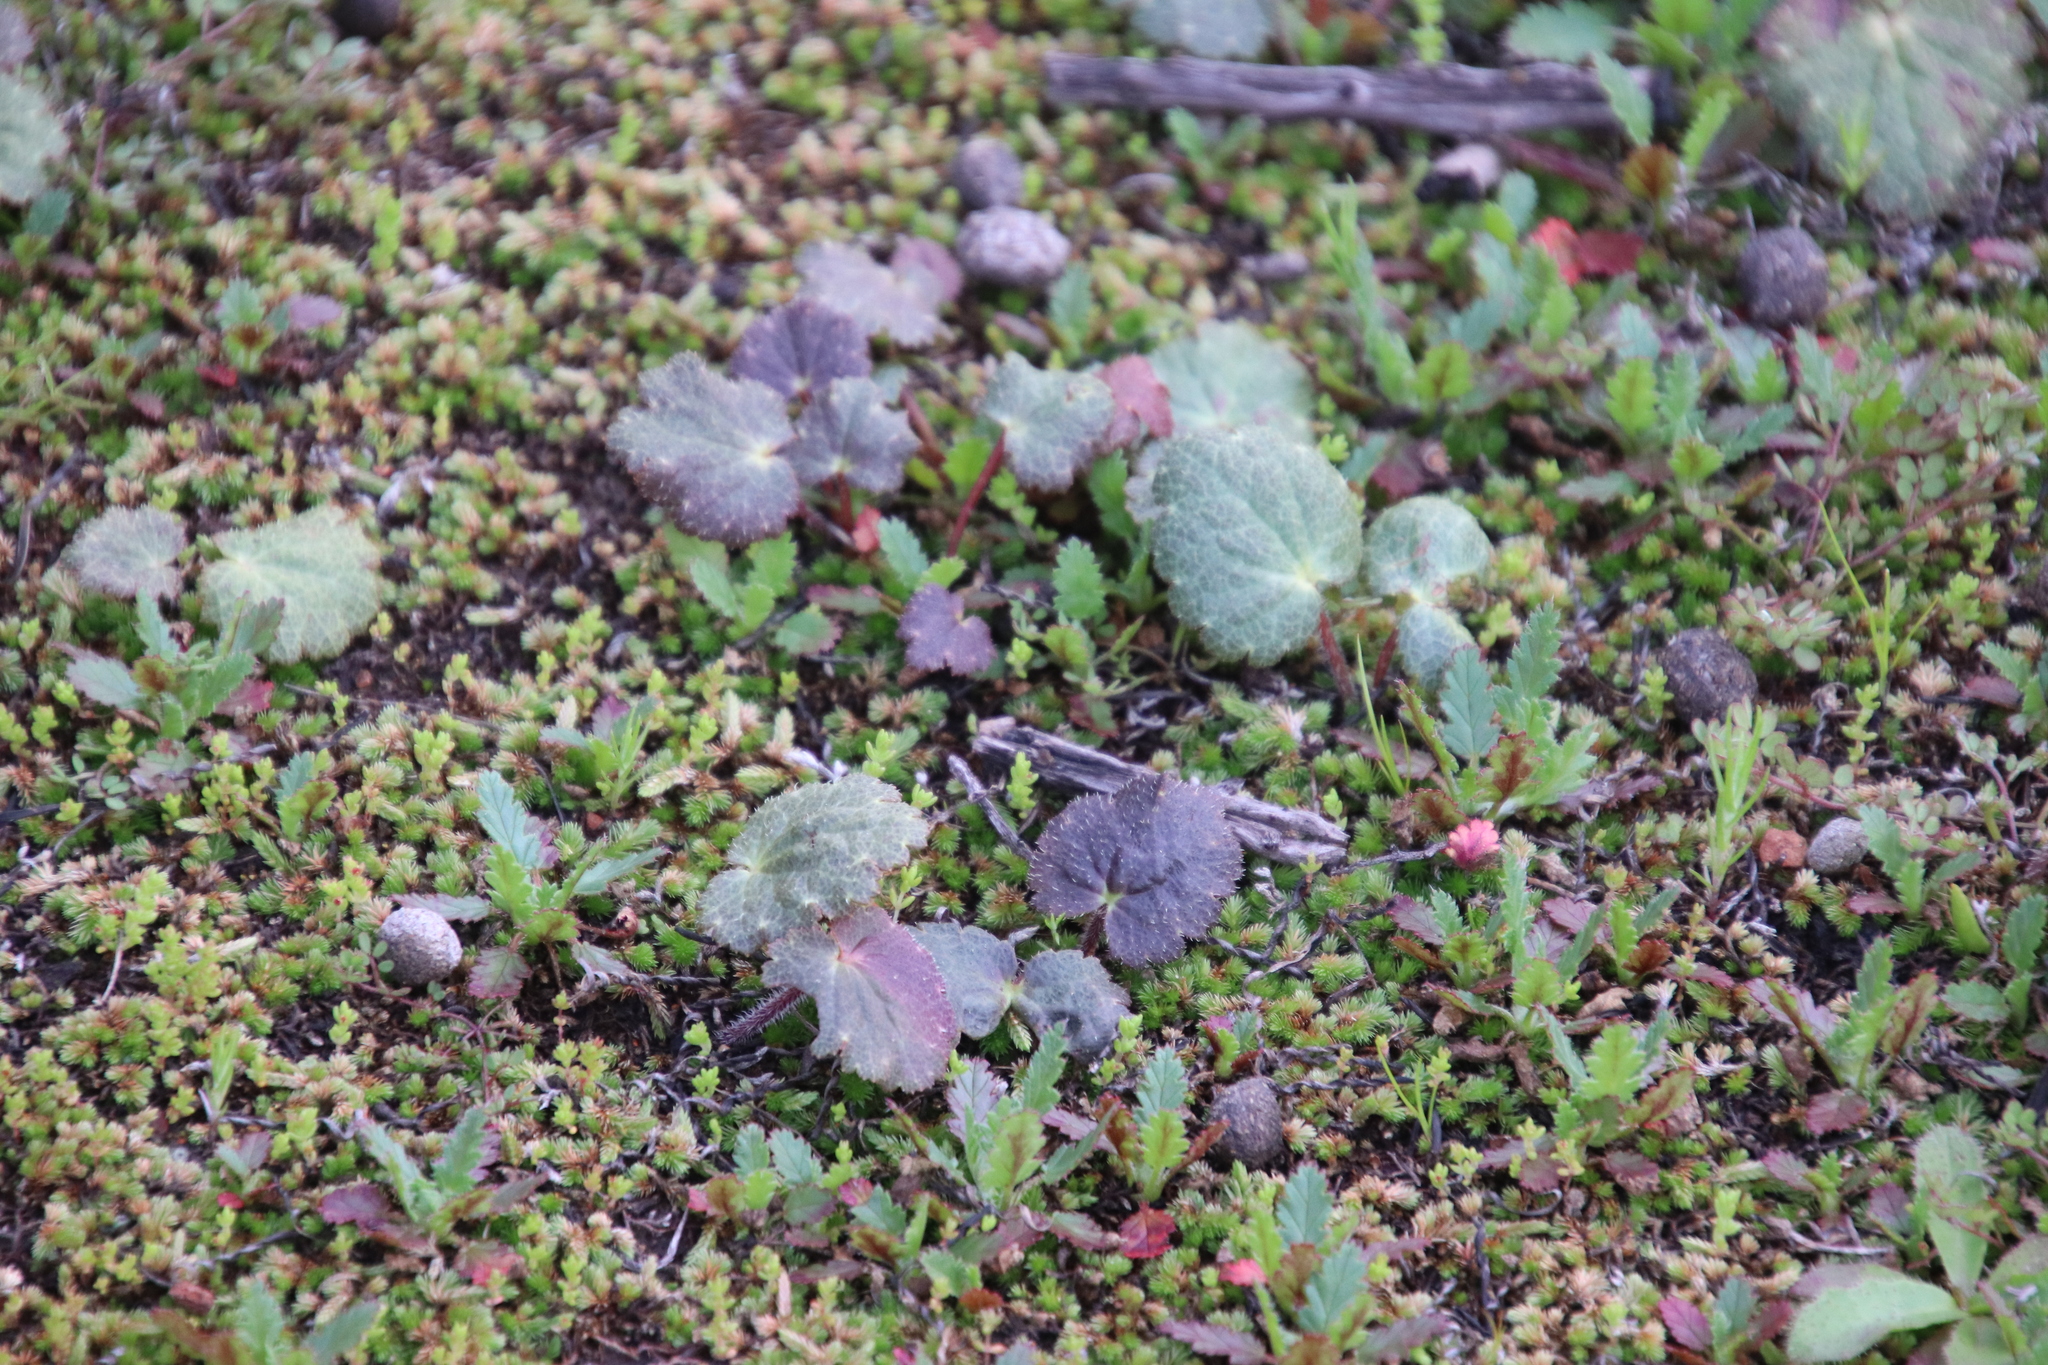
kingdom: Plantae
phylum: Tracheophyta
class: Magnoliopsida
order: Saxifragales
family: Saxifragaceae
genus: Jepsonia
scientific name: Jepsonia parryi
